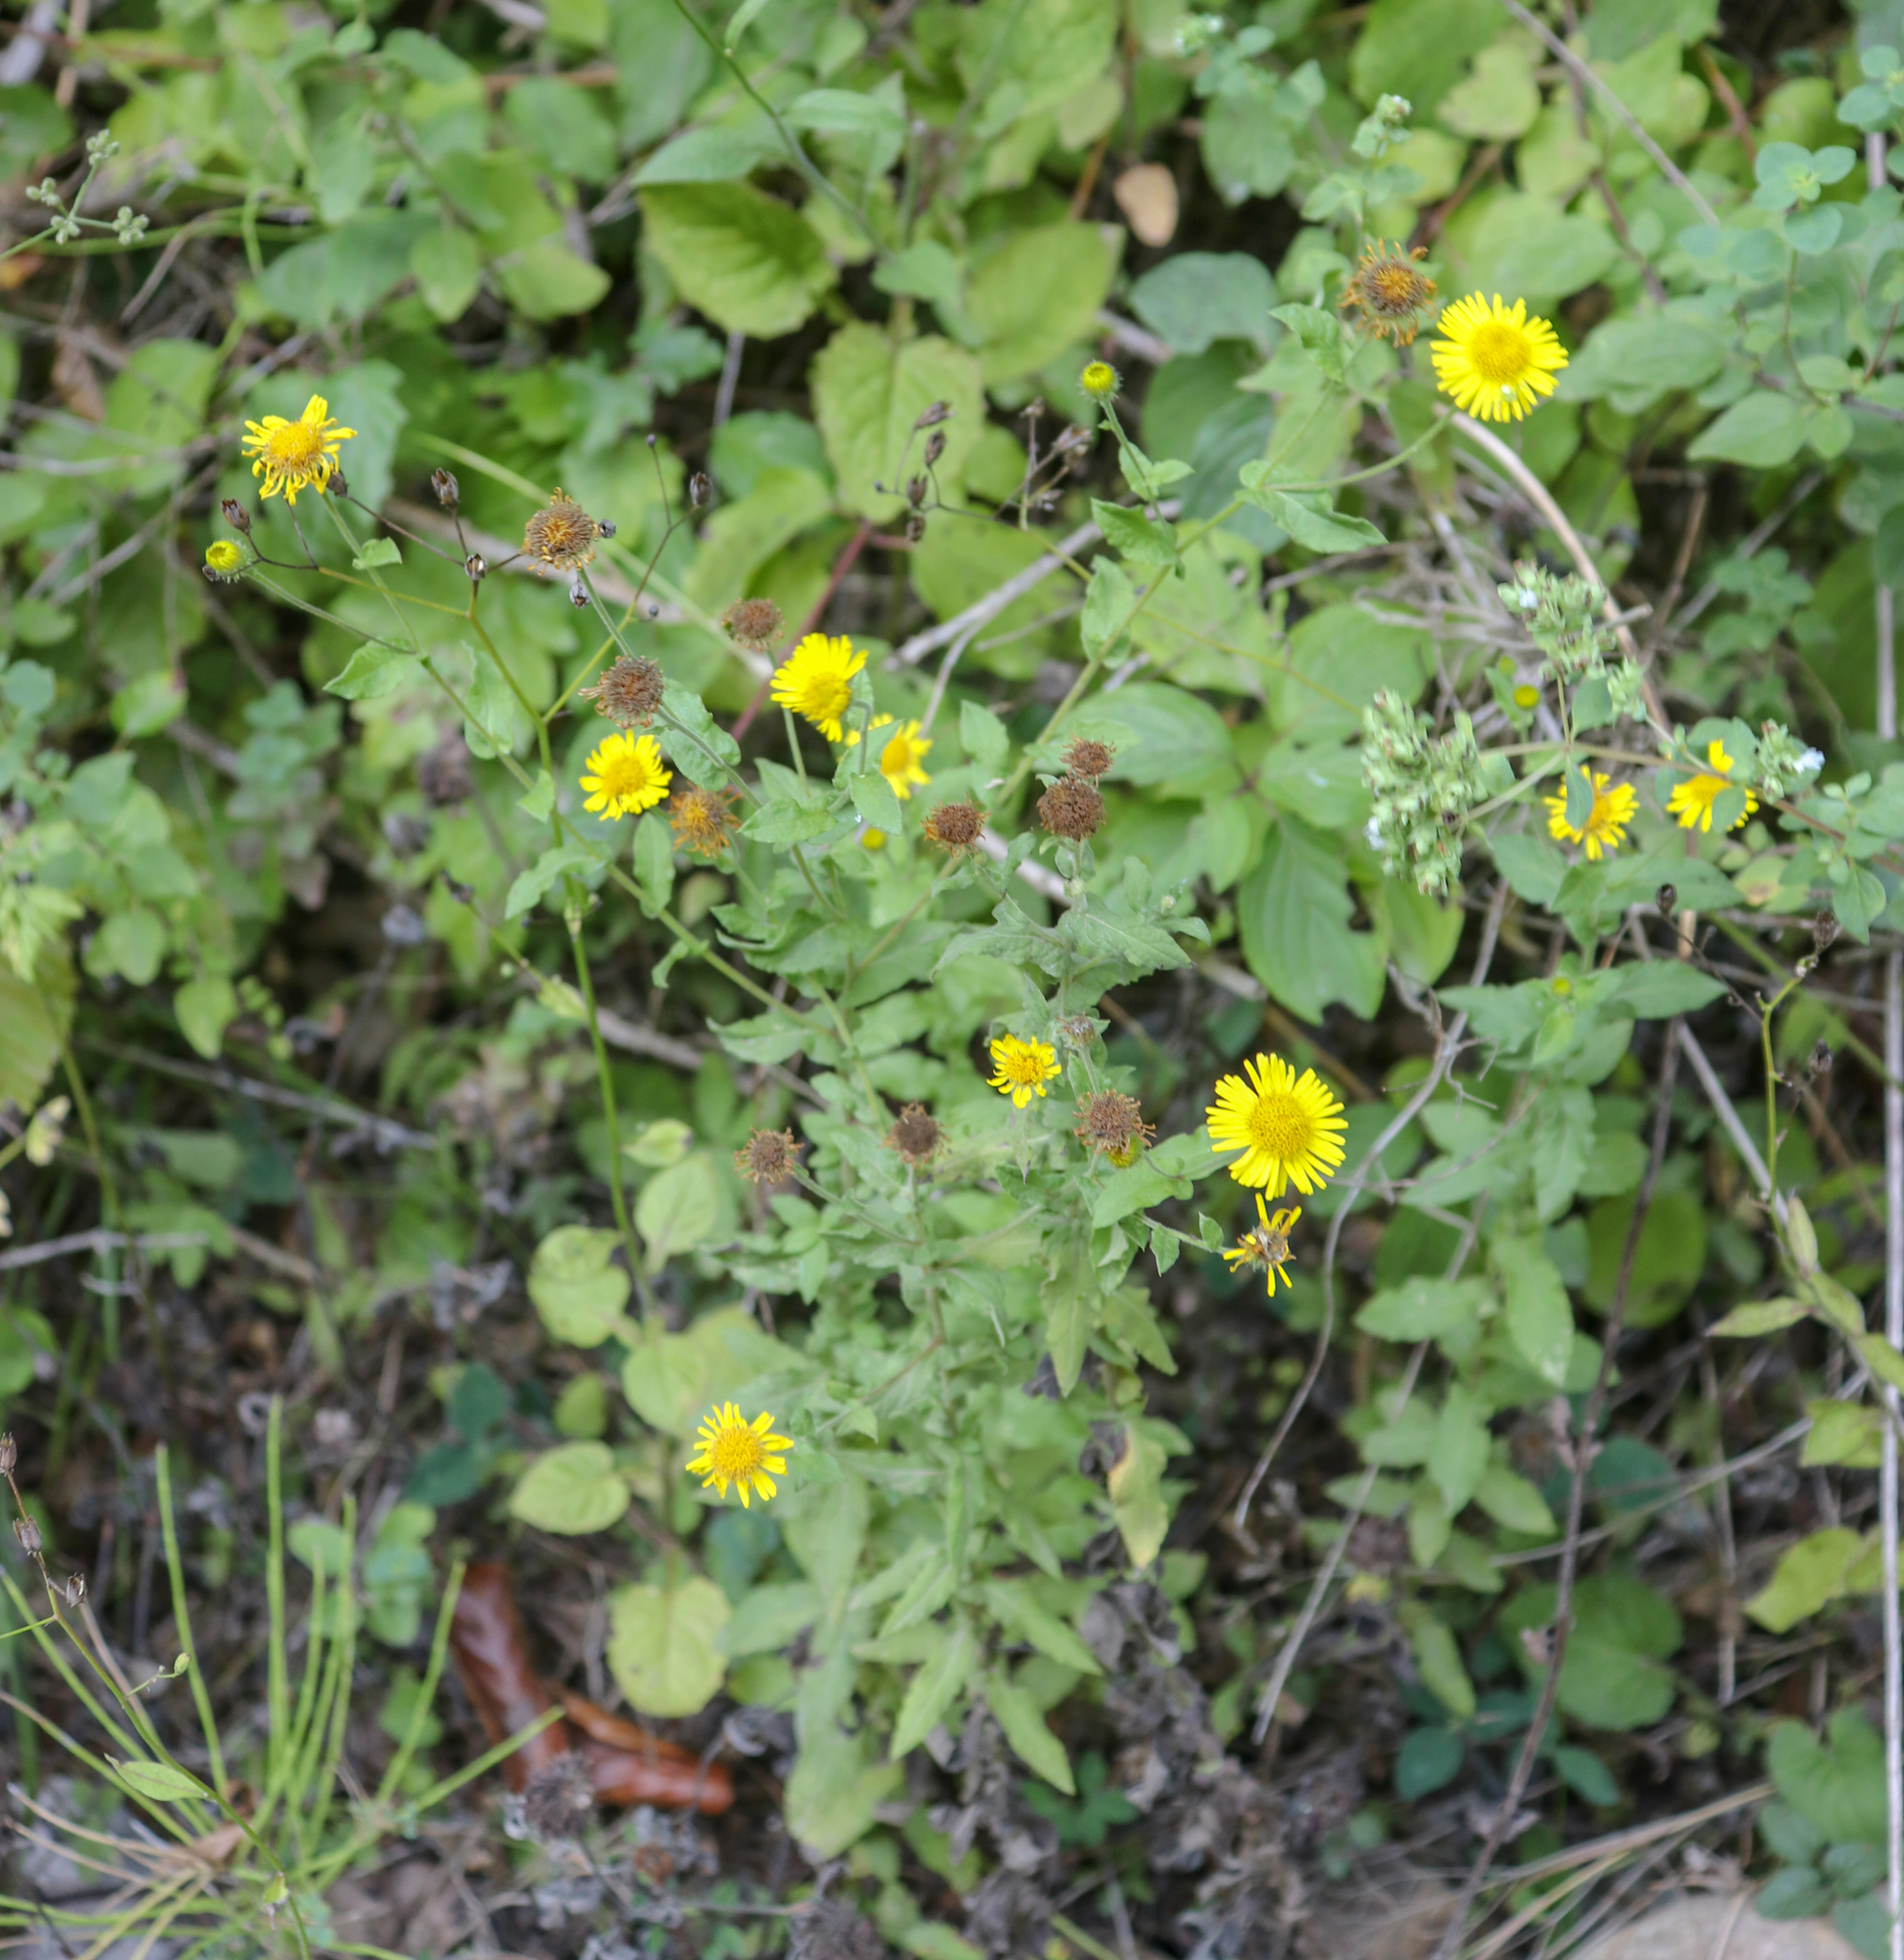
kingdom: Plantae
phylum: Tracheophyta
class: Magnoliopsida
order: Asterales
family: Asteraceae
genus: Pulicaria
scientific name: Pulicaria dysenterica
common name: Common fleabane
